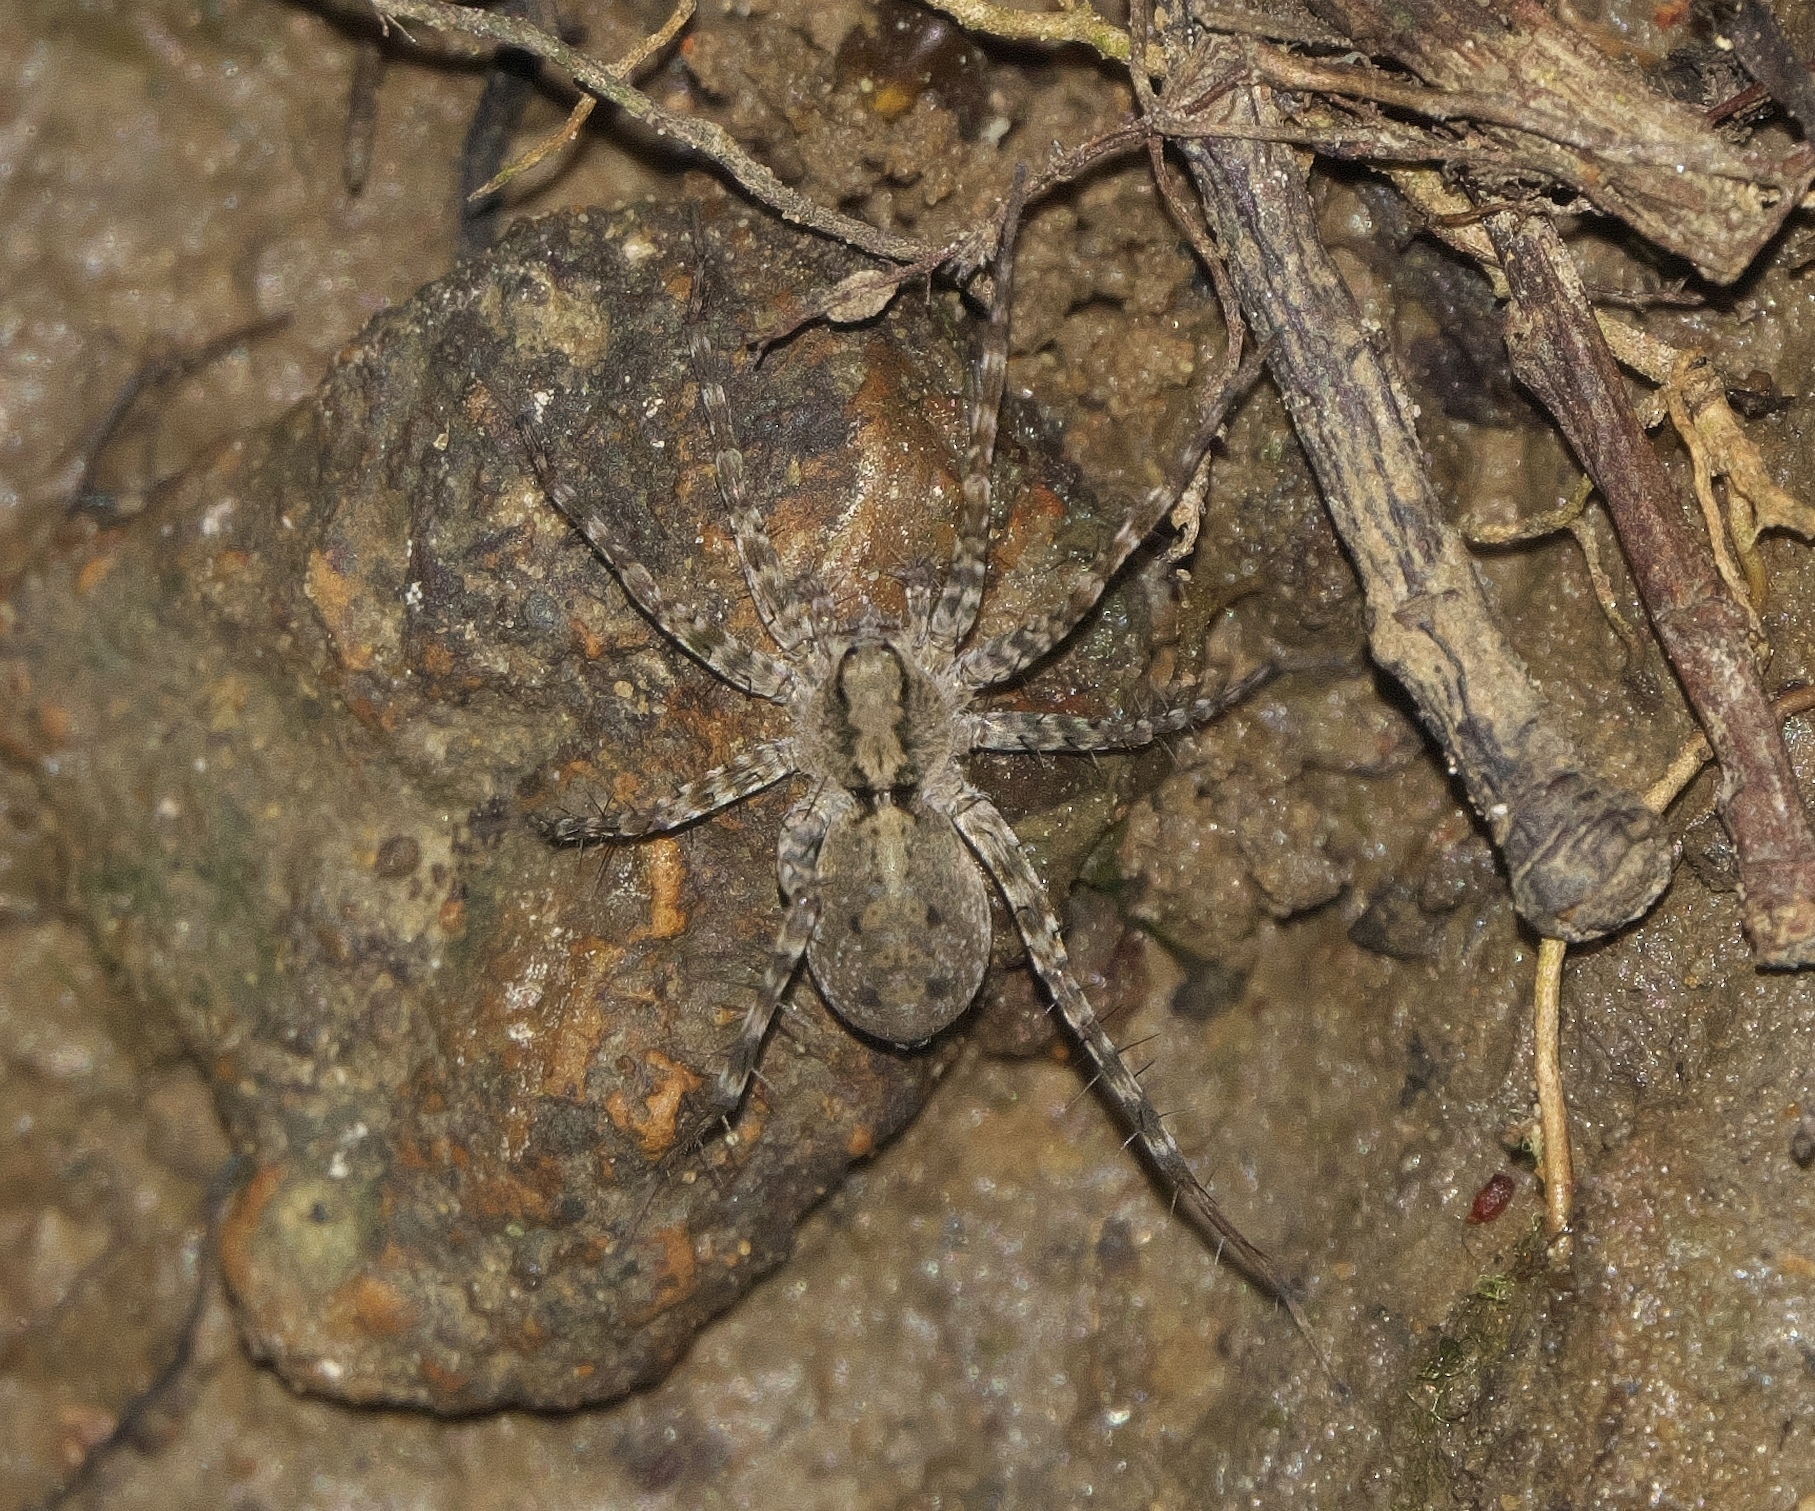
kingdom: Animalia
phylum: Arthropoda
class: Arachnida
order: Araneae
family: Lycosidae
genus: Pardosa
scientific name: Pardosa milvina
